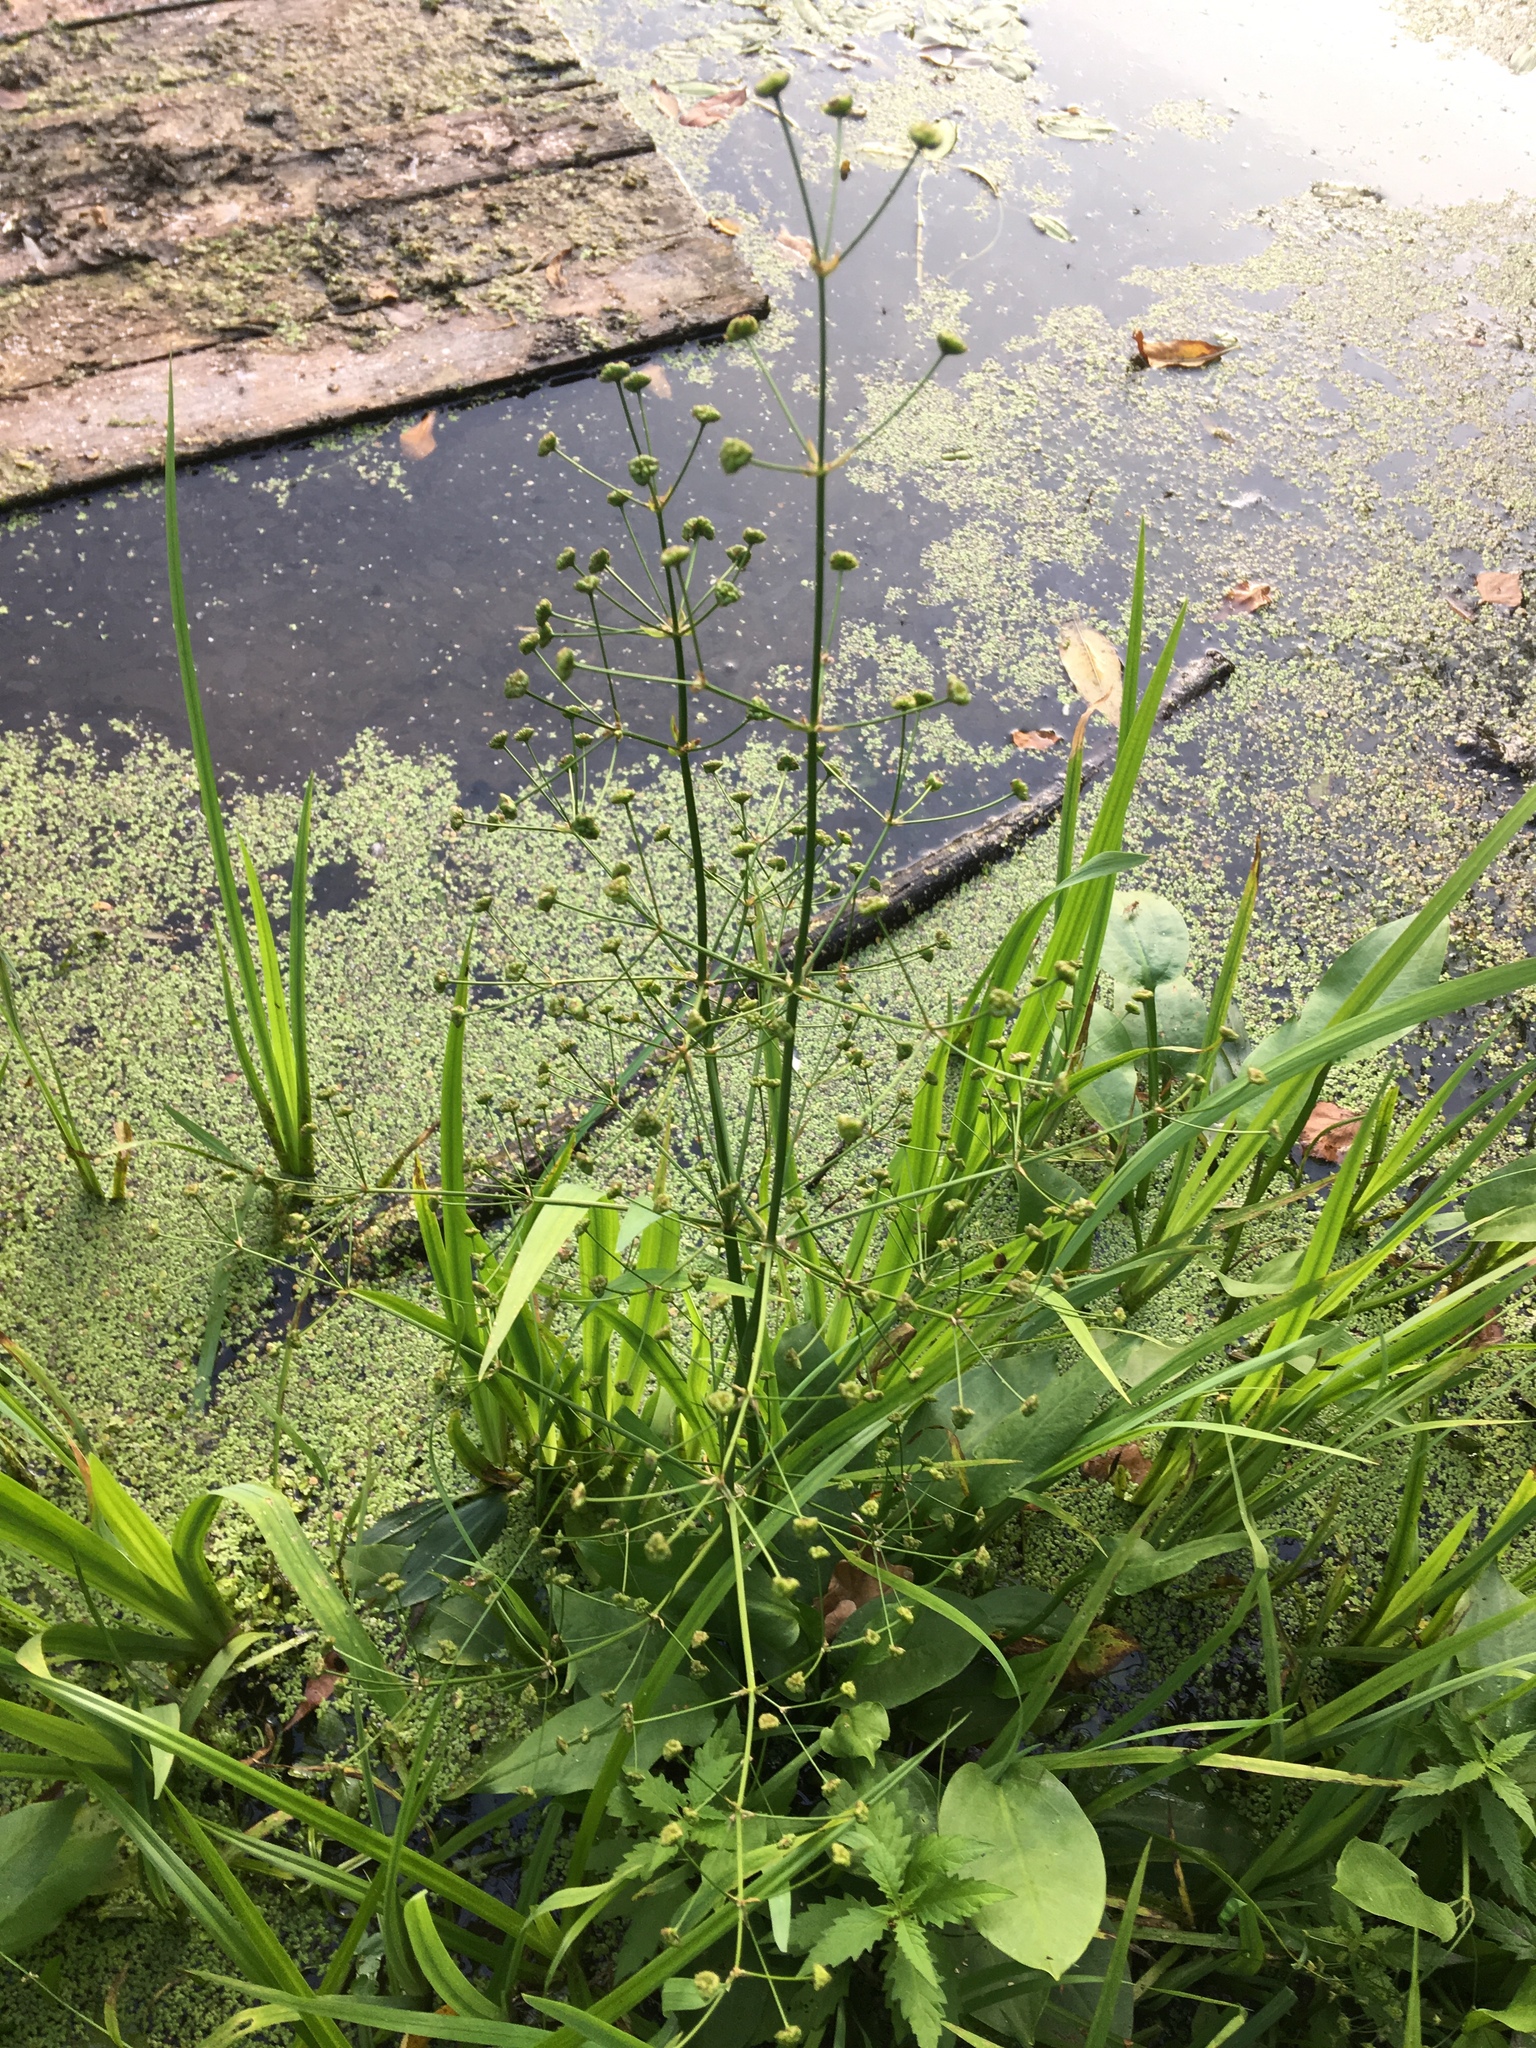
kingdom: Plantae
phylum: Tracheophyta
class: Liliopsida
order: Alismatales
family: Alismataceae
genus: Alisma
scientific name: Alisma plantago-aquatica
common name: Water-plantain
